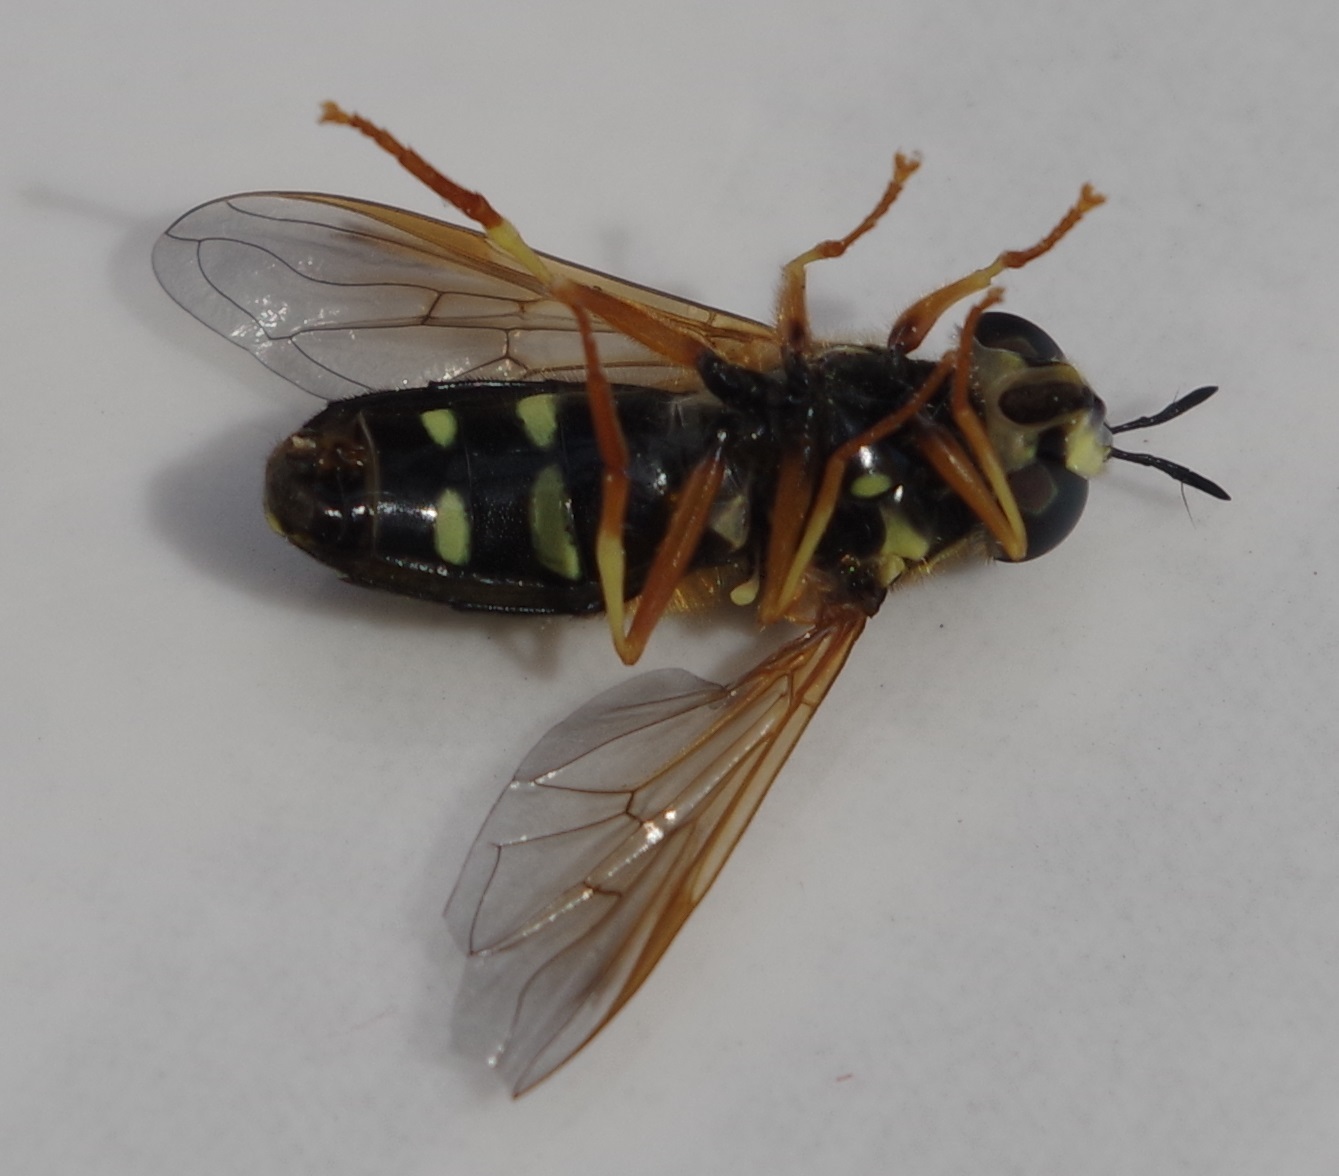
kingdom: Animalia
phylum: Arthropoda
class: Insecta
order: Diptera
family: Syrphidae
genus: Chrysotoxum
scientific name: Chrysotoxum festivum
